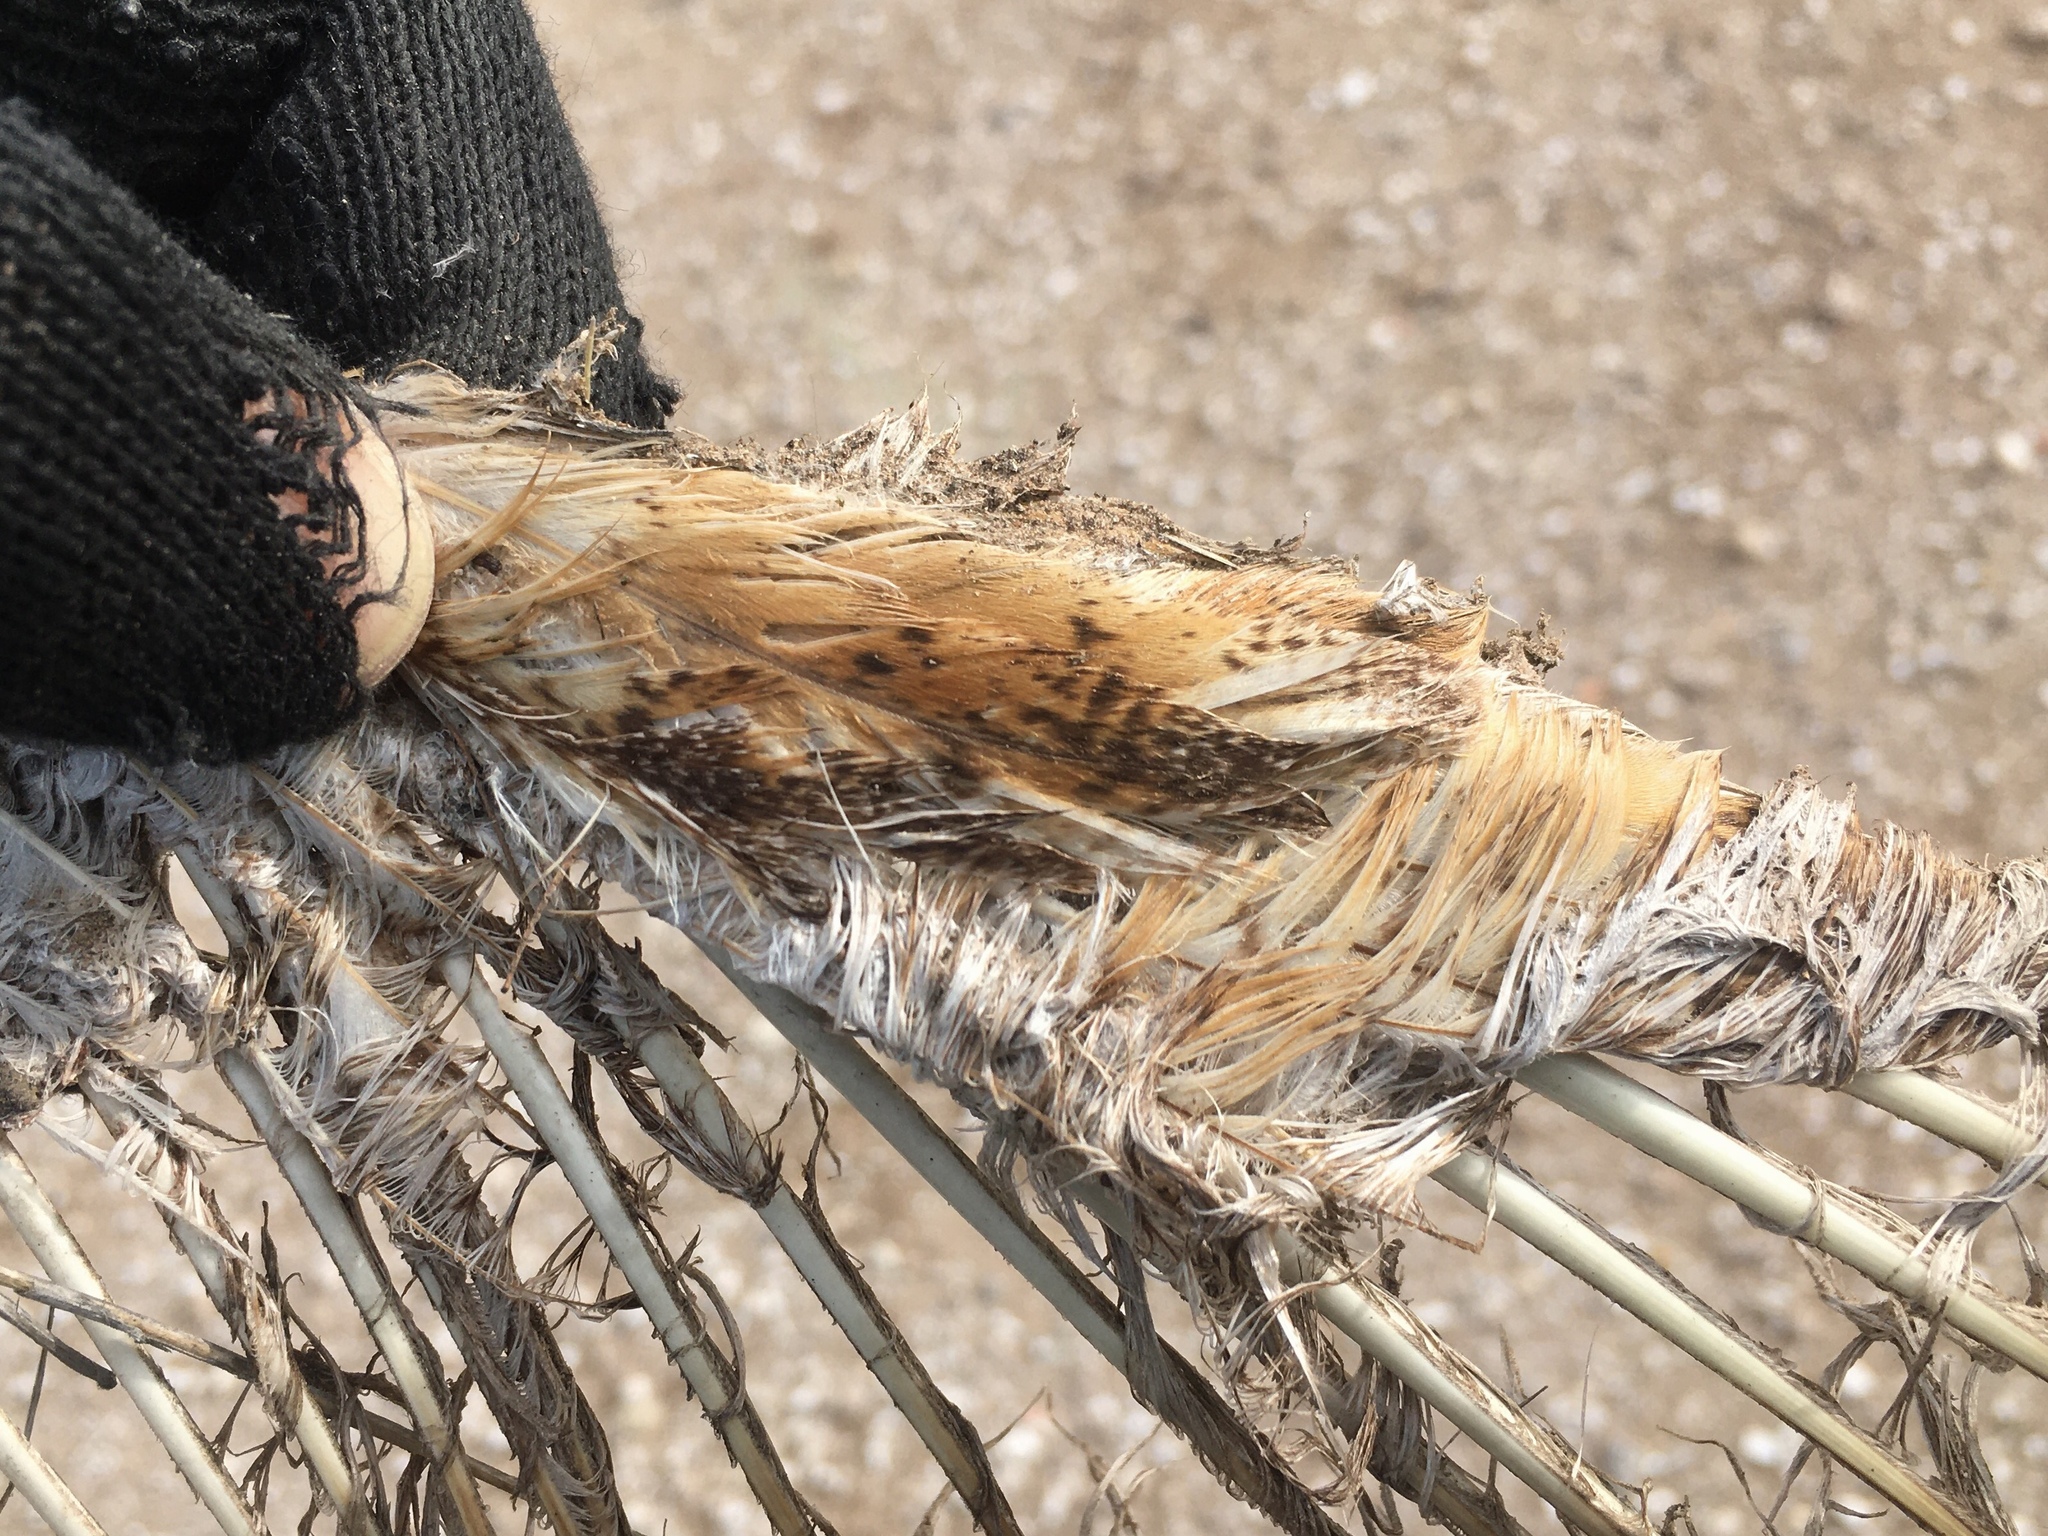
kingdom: Animalia
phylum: Chordata
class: Aves
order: Strigiformes
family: Tytonidae
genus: Tyto
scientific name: Tyto furcata
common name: American barn owl
